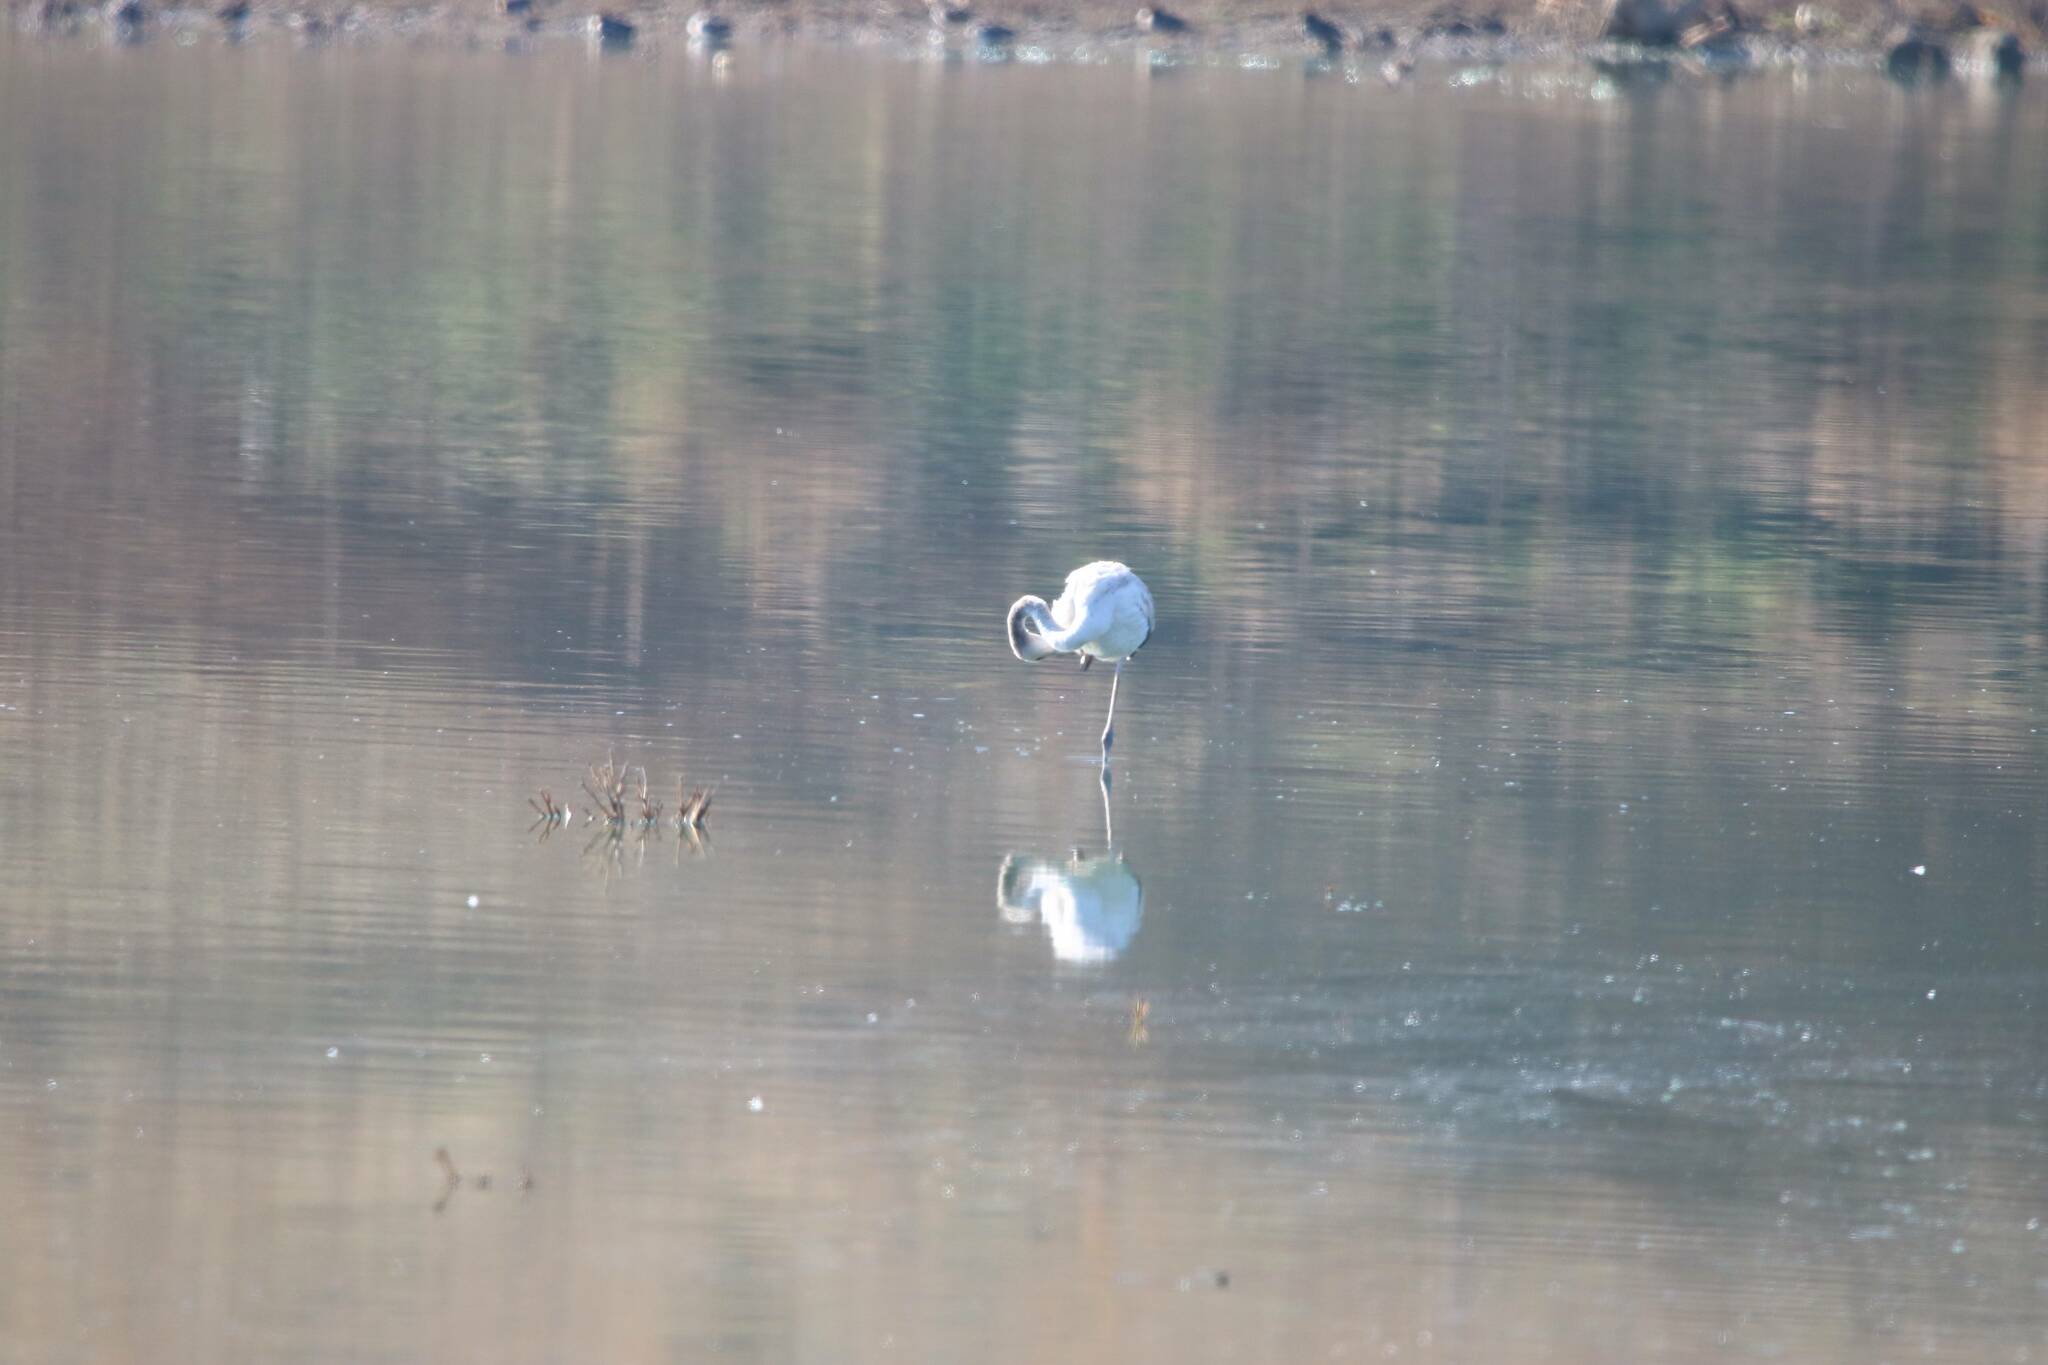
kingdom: Animalia
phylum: Chordata
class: Aves
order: Phoenicopteriformes
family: Phoenicopteridae
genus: Phoenicopterus
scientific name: Phoenicopterus roseus
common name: Greater flamingo
